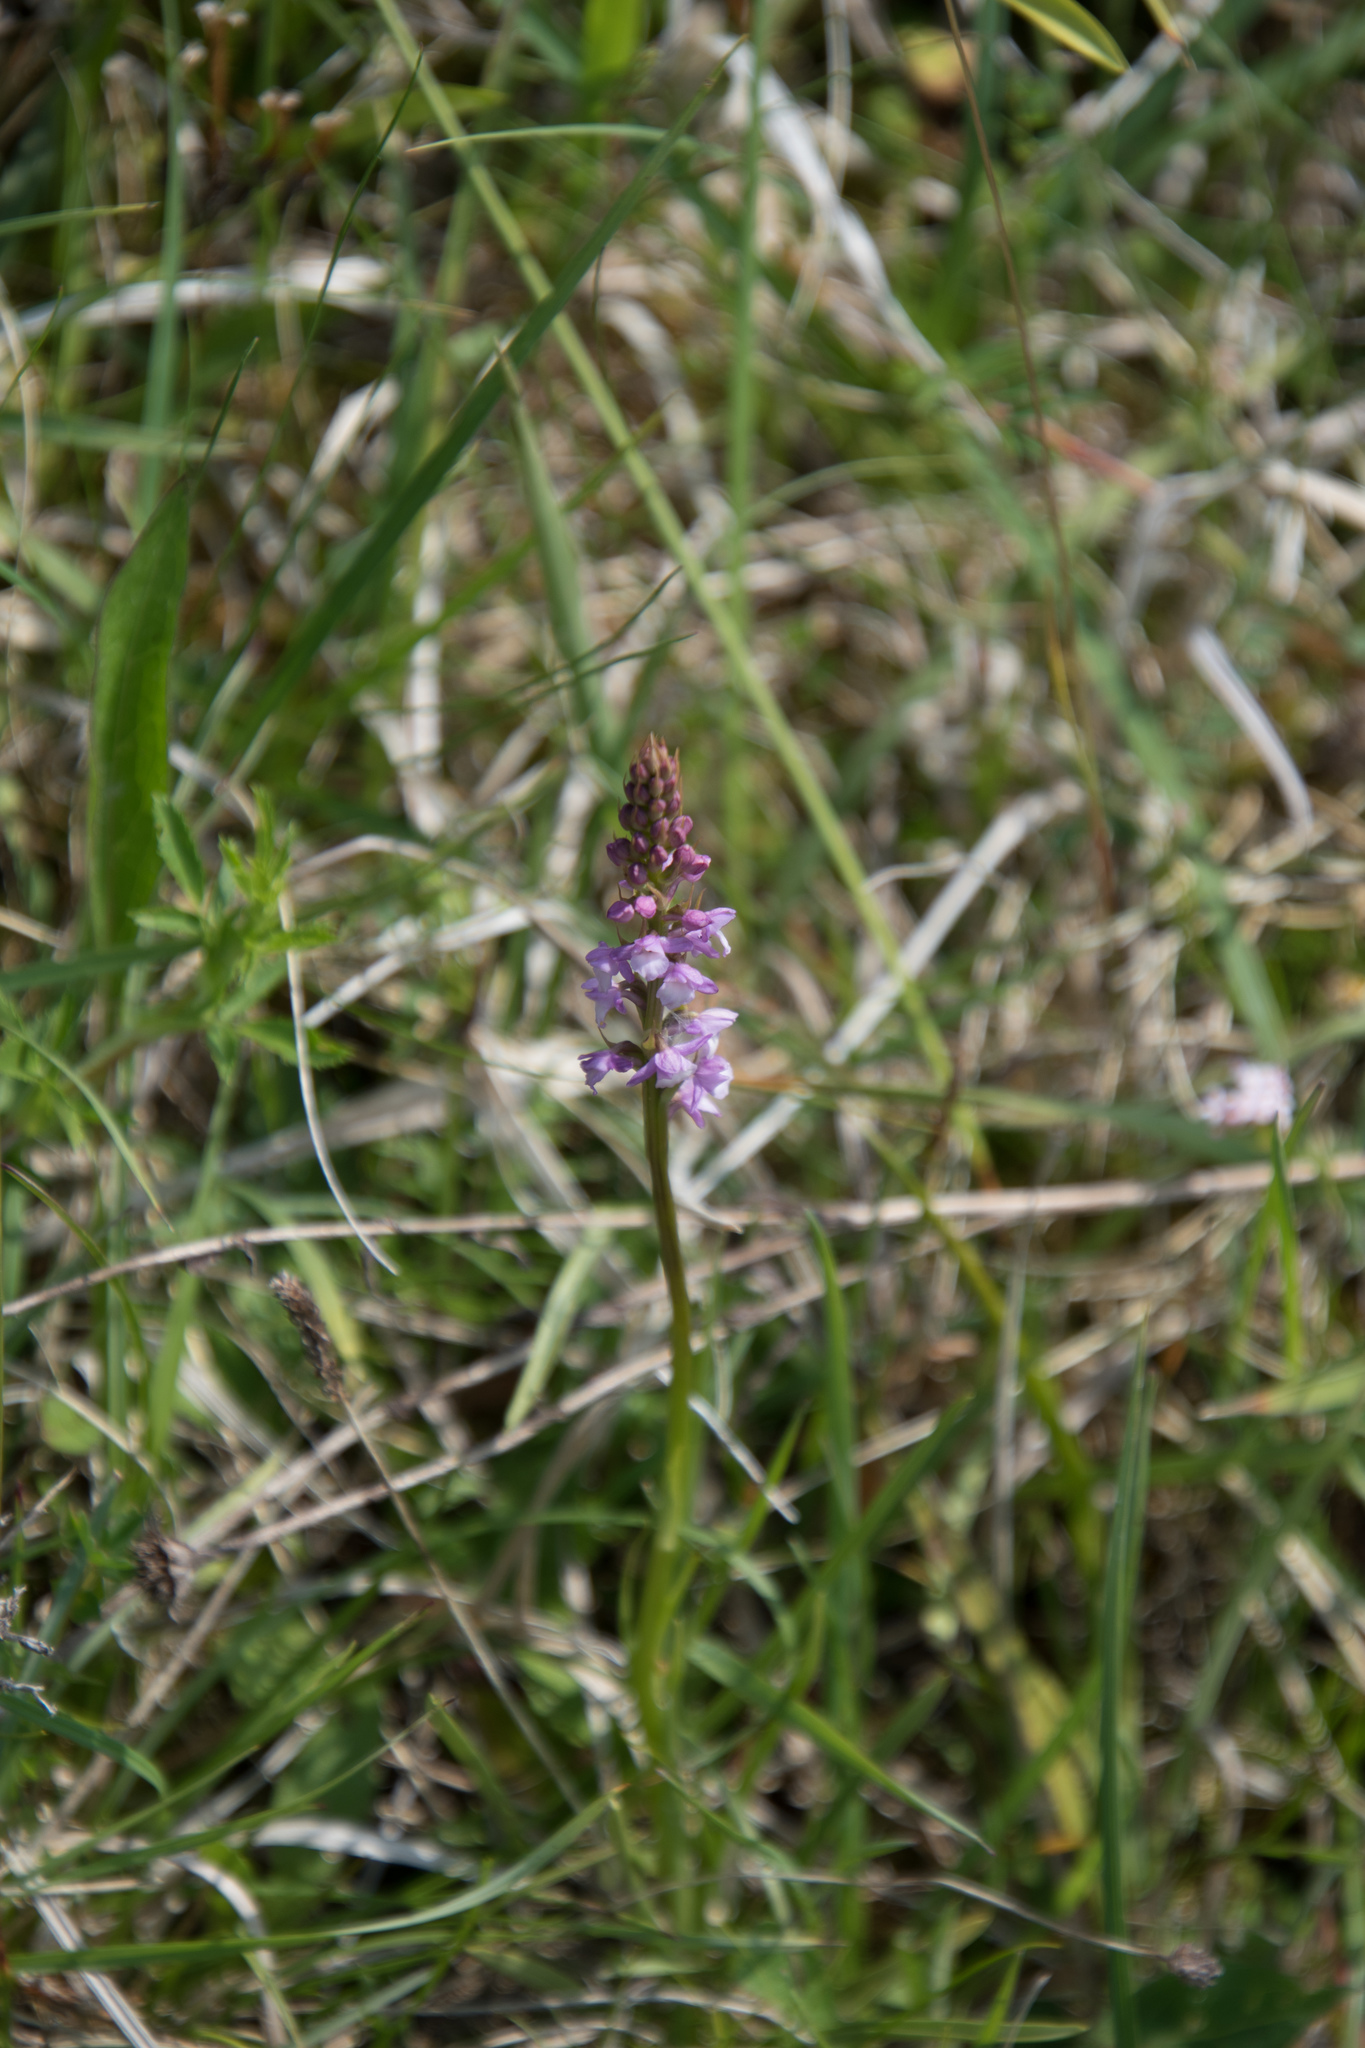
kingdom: Plantae
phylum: Tracheophyta
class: Liliopsida
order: Asparagales
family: Orchidaceae
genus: Gymnadenia
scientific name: Gymnadenia odoratissima
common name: Scented gymnadenia
